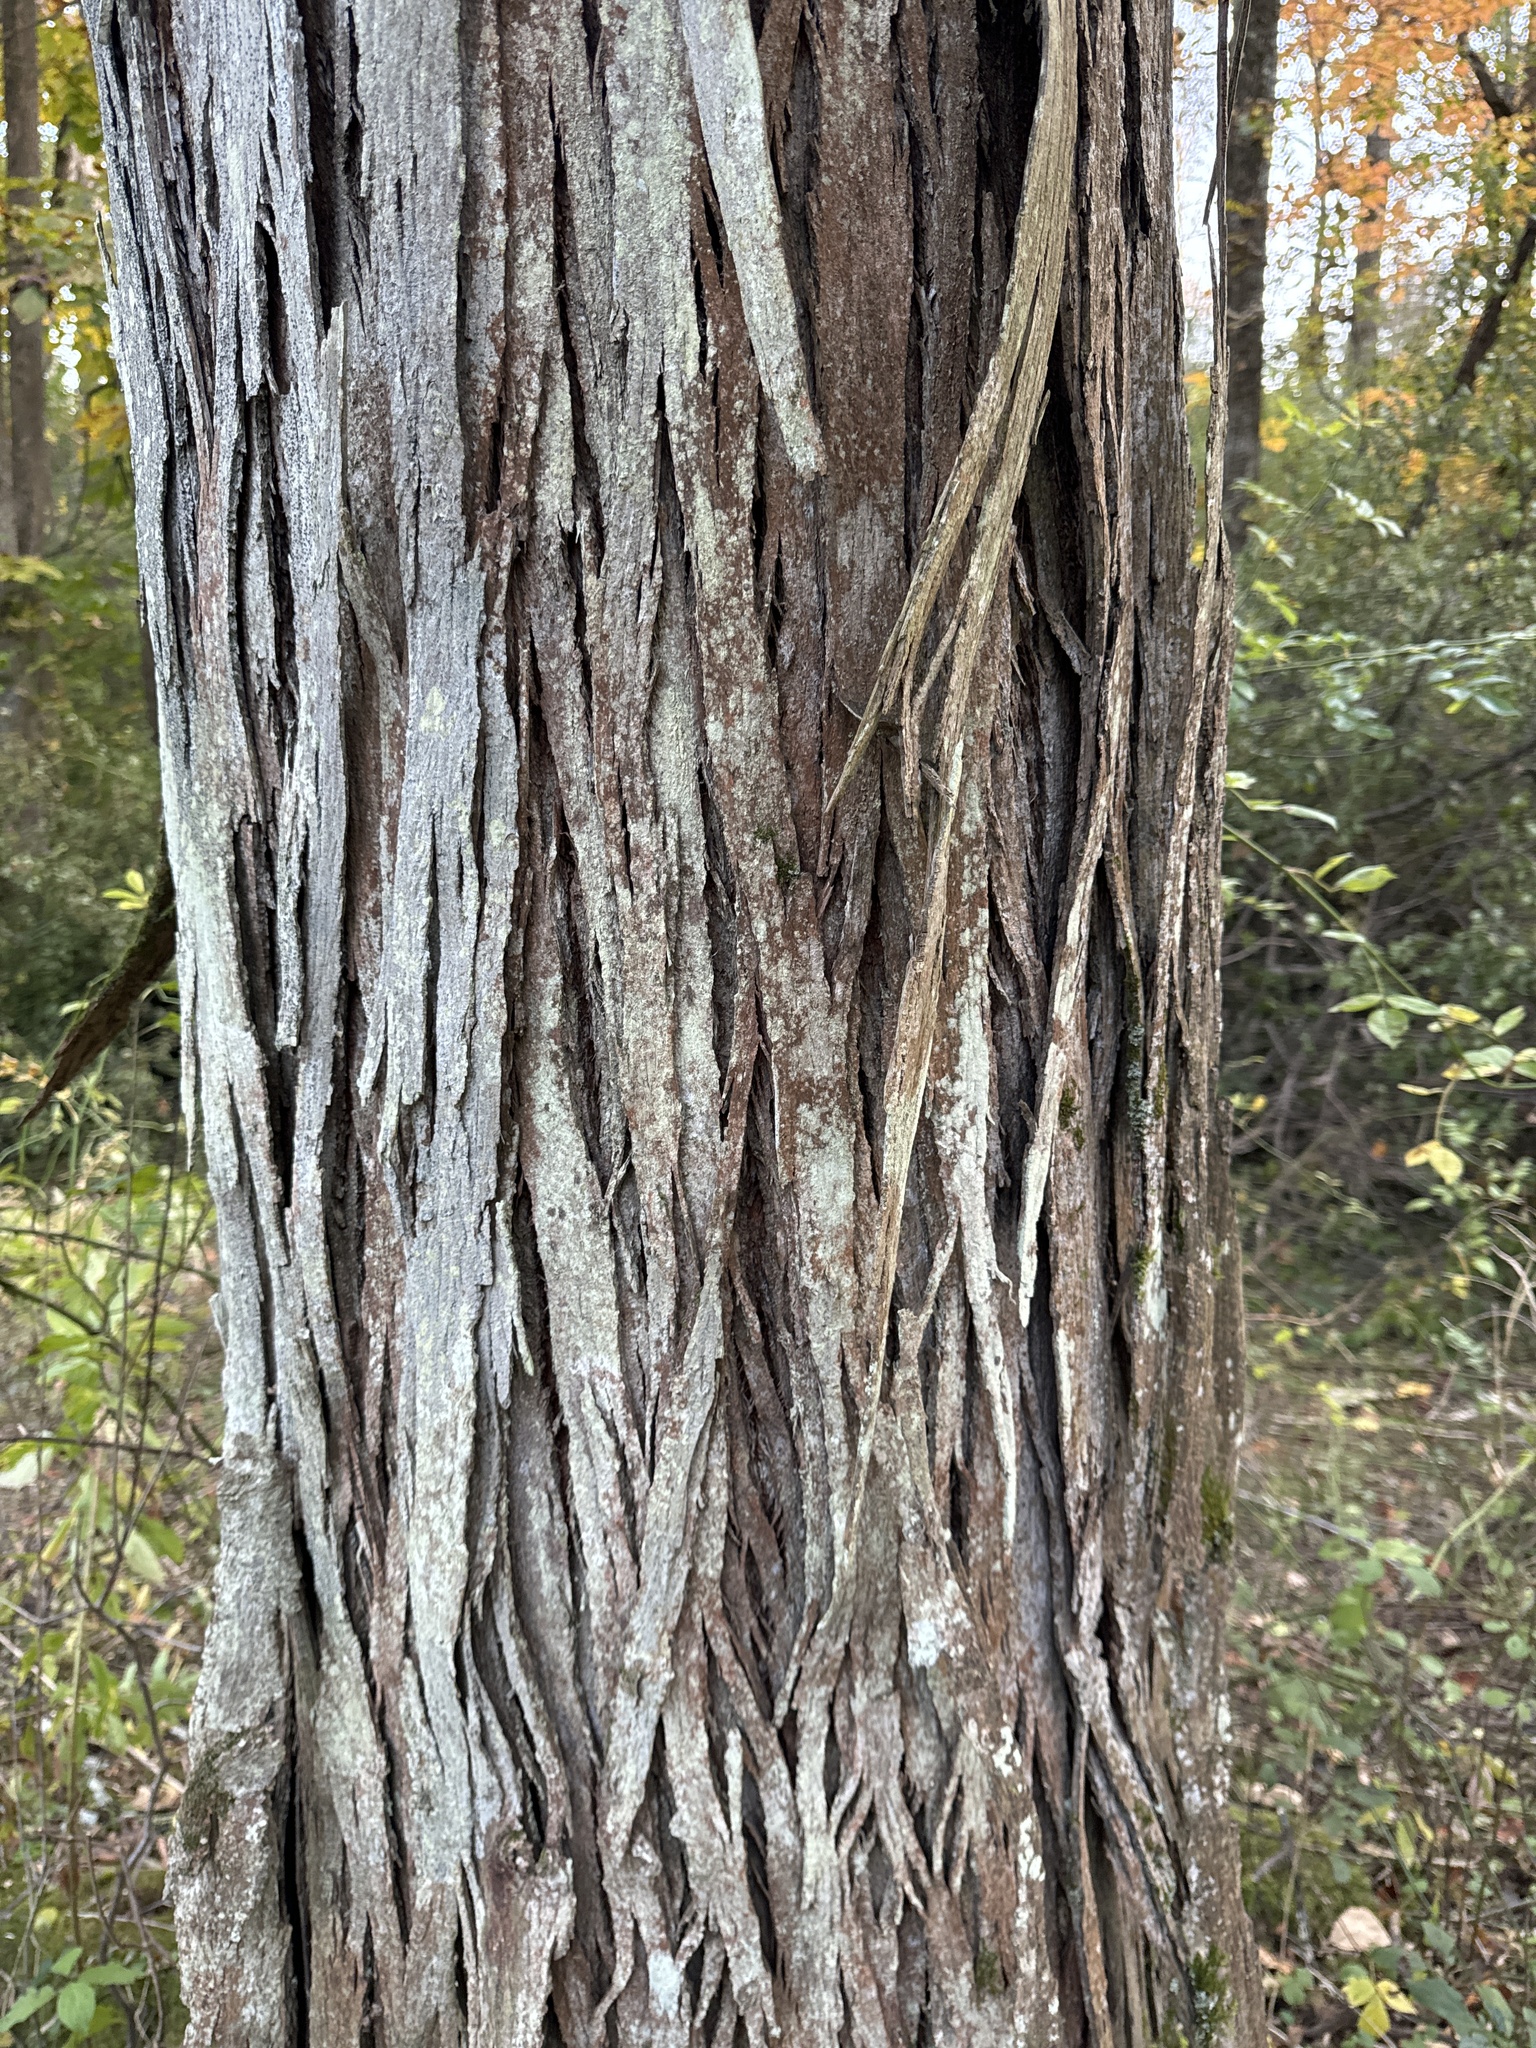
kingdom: Plantae
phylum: Tracheophyta
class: Magnoliopsida
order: Fagales
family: Juglandaceae
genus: Carya
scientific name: Carya ovata
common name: Shagbark hickory
